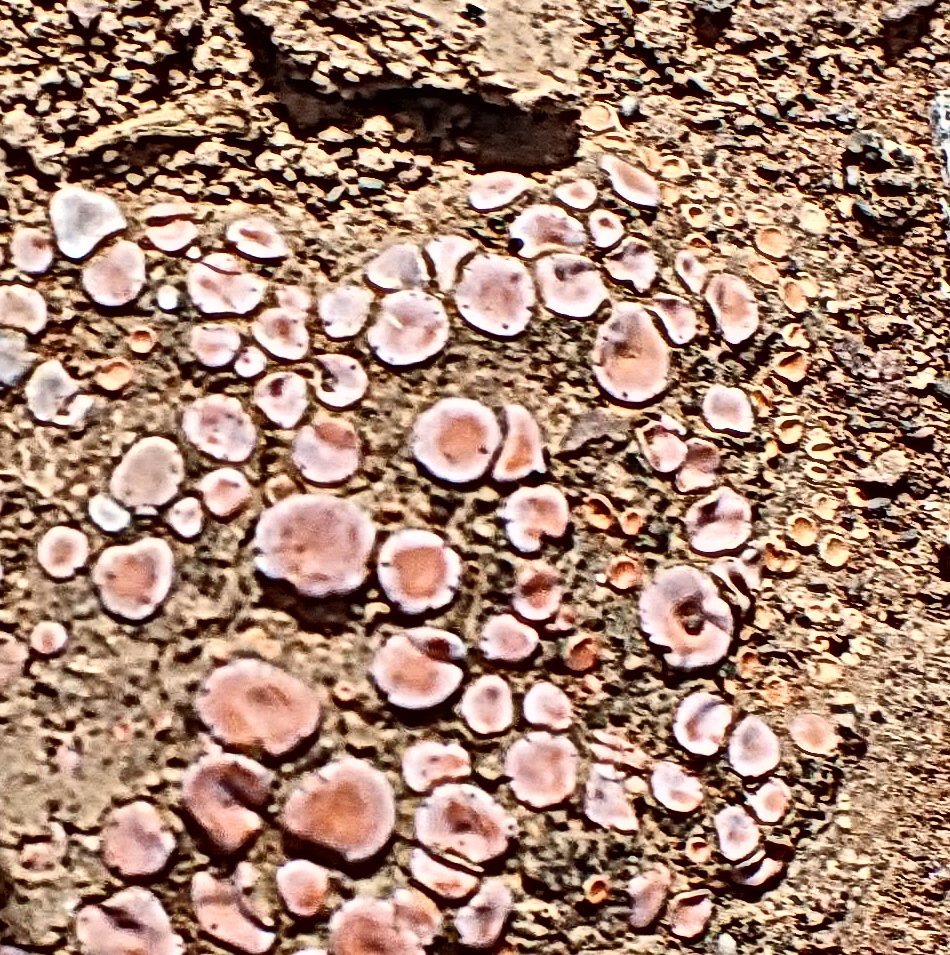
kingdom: Fungi
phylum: Ascomycota
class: Lecanoromycetes
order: Lecanorales
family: Psoraceae
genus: Psora
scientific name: Psora crenata
